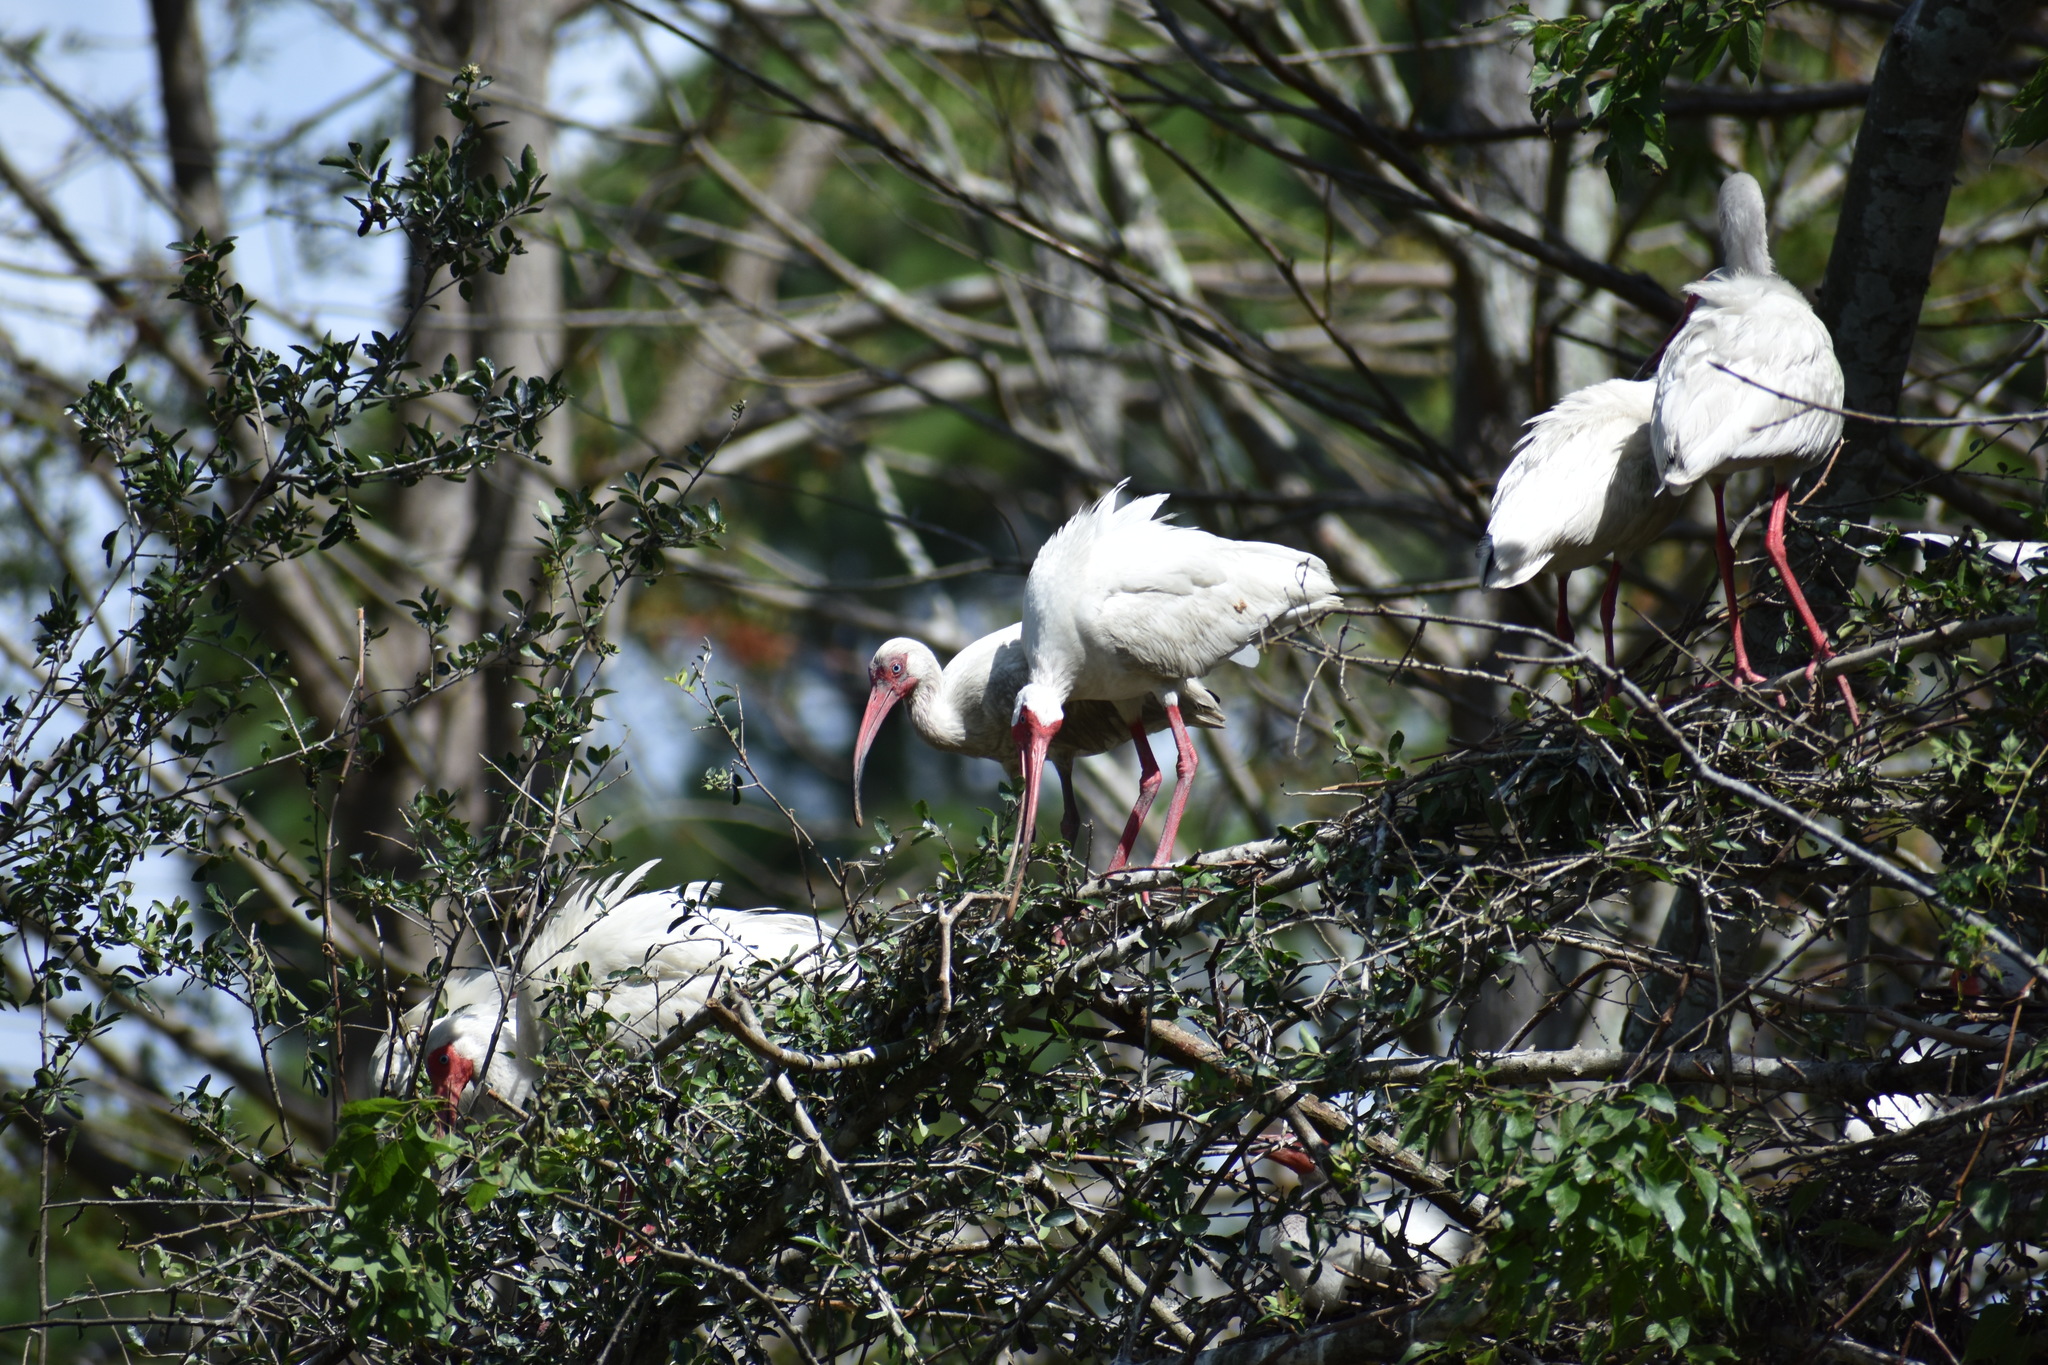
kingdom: Animalia
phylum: Chordata
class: Aves
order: Pelecaniformes
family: Threskiornithidae
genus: Eudocimus
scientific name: Eudocimus albus
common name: White ibis
